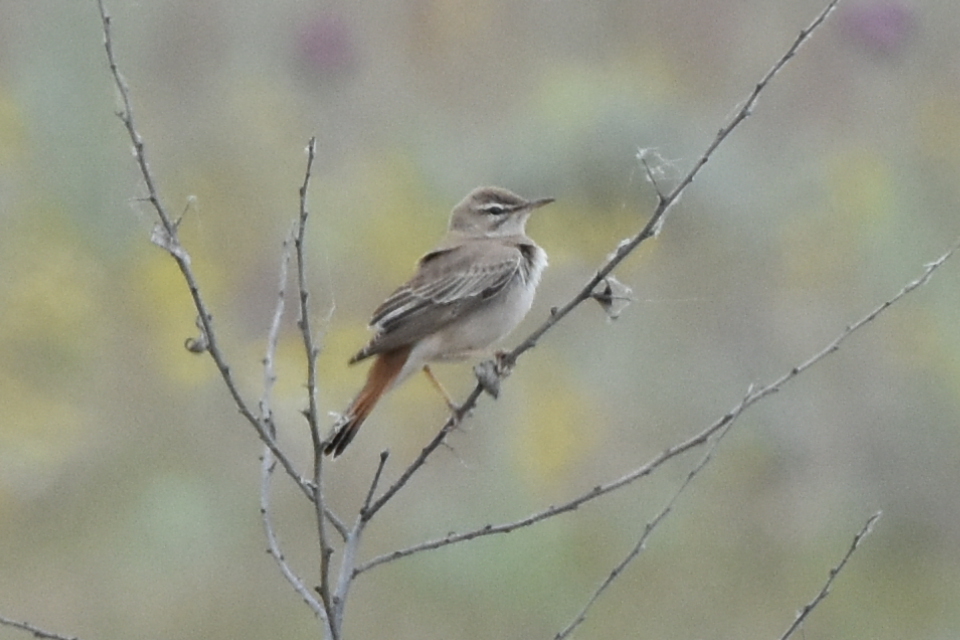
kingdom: Animalia
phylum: Chordata
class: Aves
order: Passeriformes
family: Muscicapidae
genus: Erythropygia
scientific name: Erythropygia galactotes
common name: Rufous-tailed scrub robin
